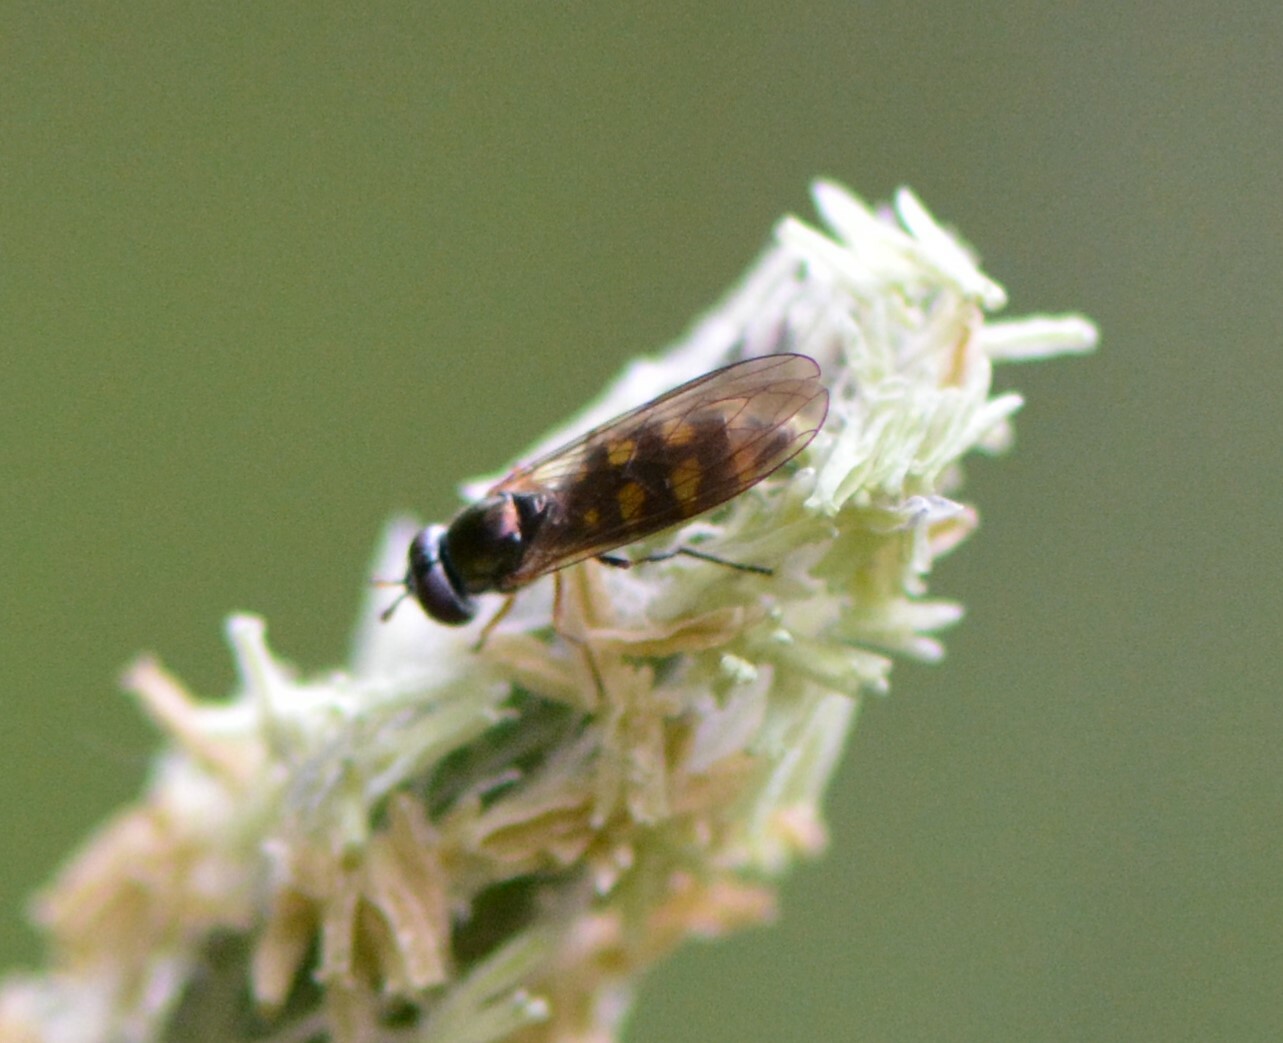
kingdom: Animalia
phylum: Arthropoda
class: Insecta
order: Diptera
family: Syrphidae
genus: Melanostoma
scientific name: Melanostoma mellina
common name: Hover fly
